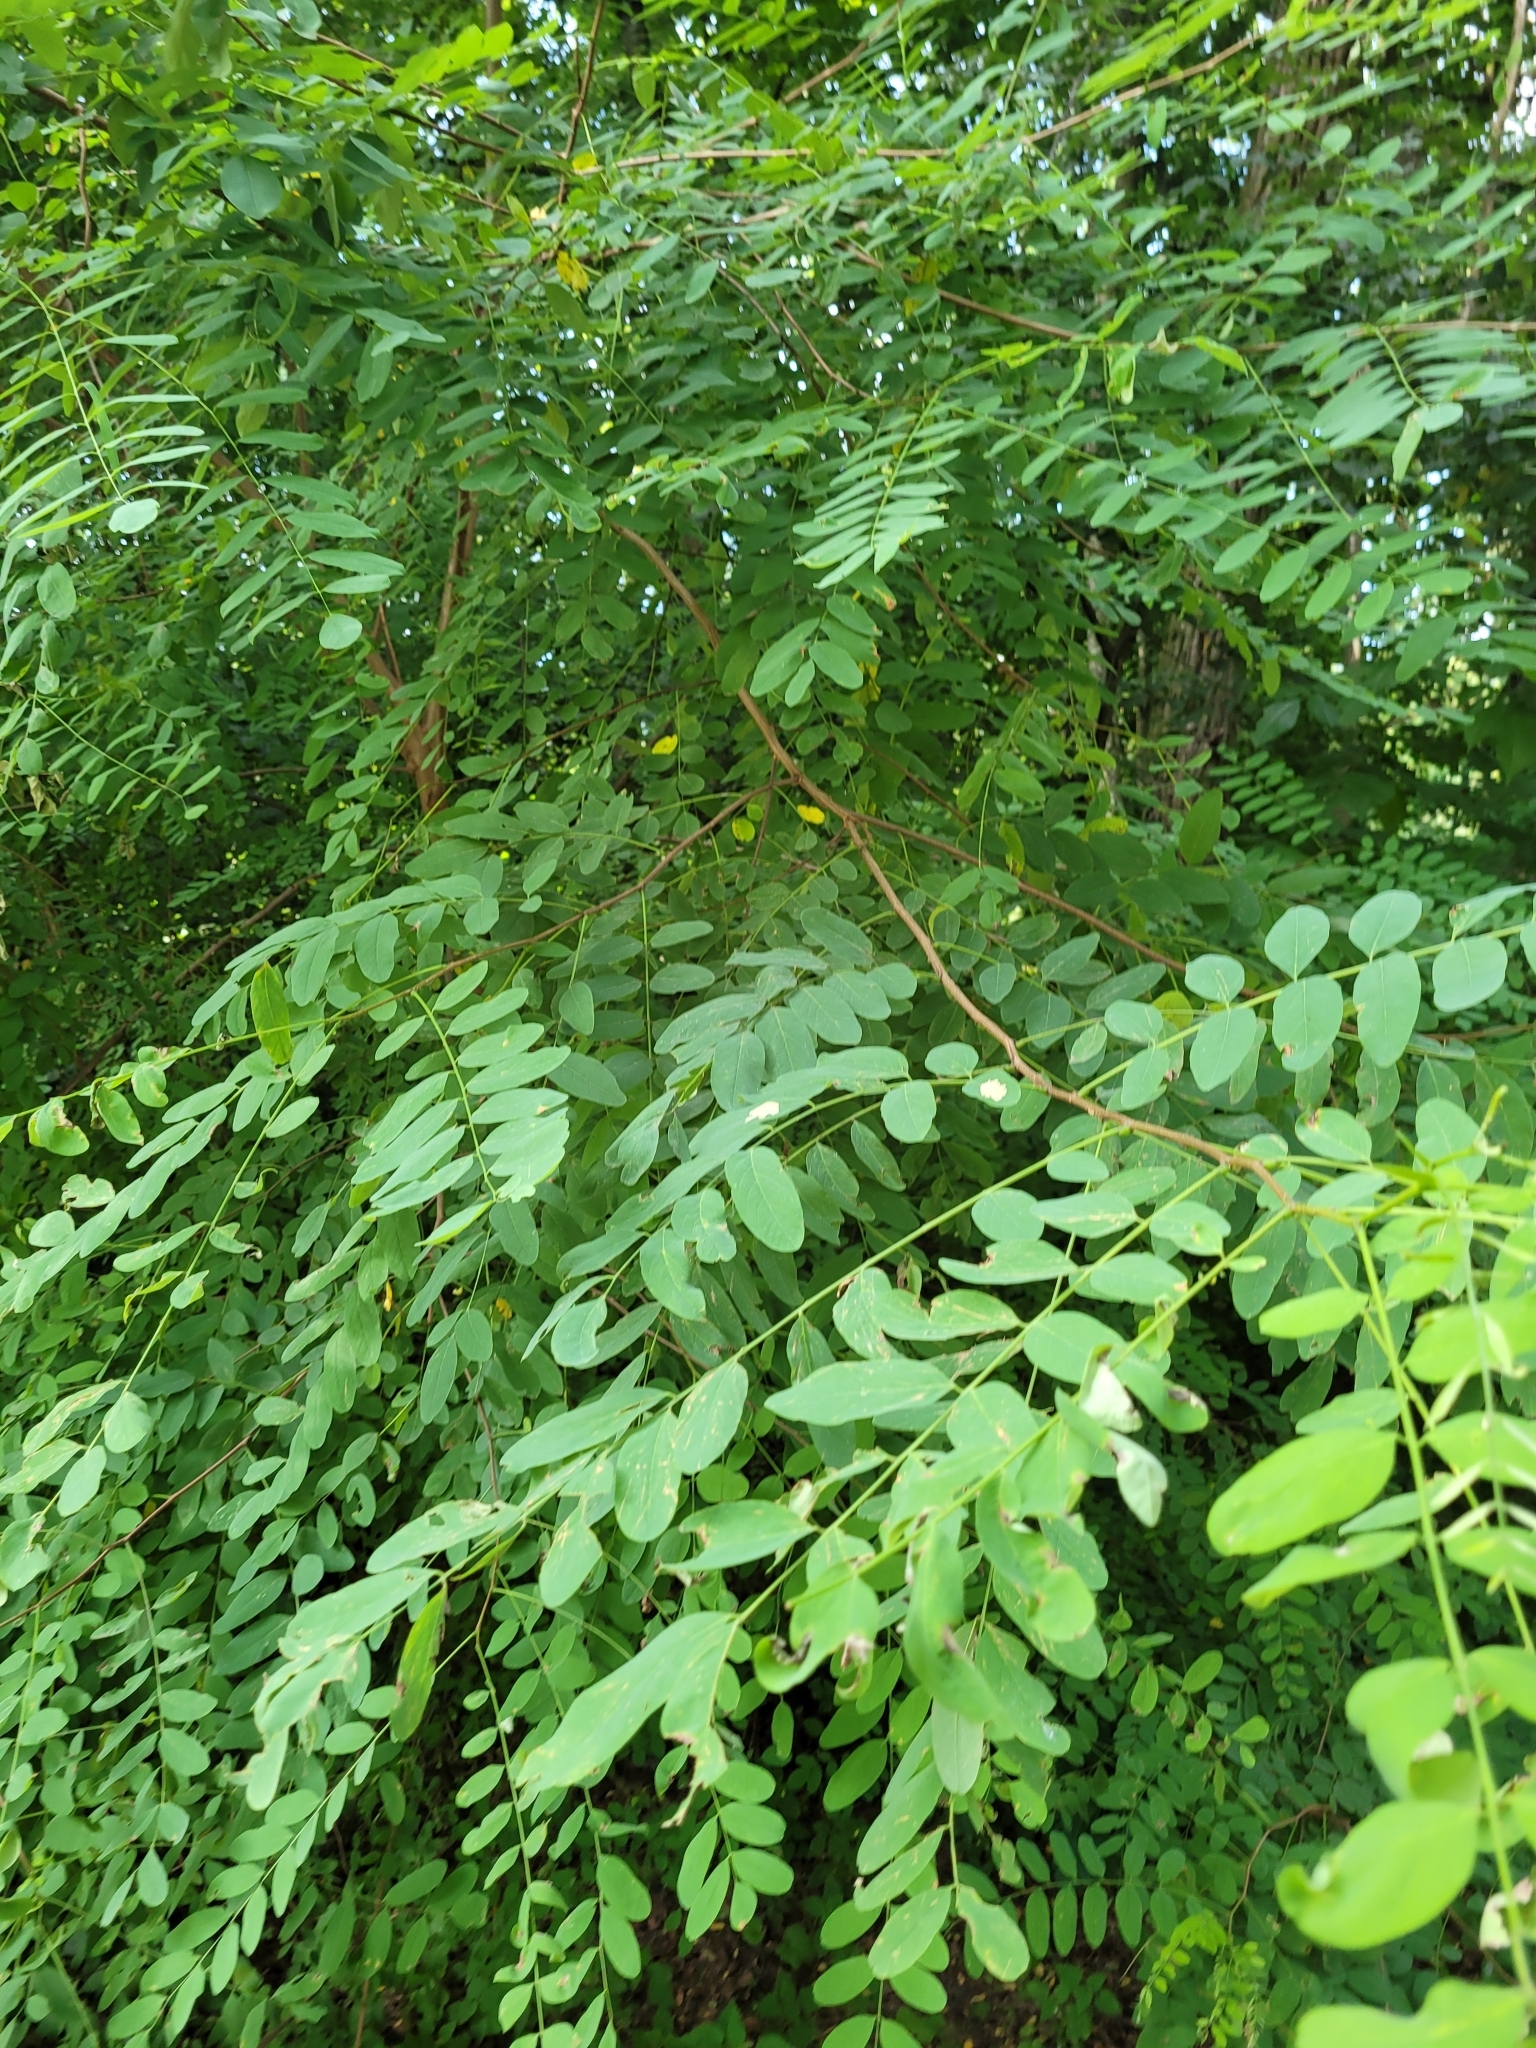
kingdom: Plantae
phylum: Tracheophyta
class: Magnoliopsida
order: Fabales
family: Fabaceae
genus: Robinia
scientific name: Robinia pseudoacacia
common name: Black locust
